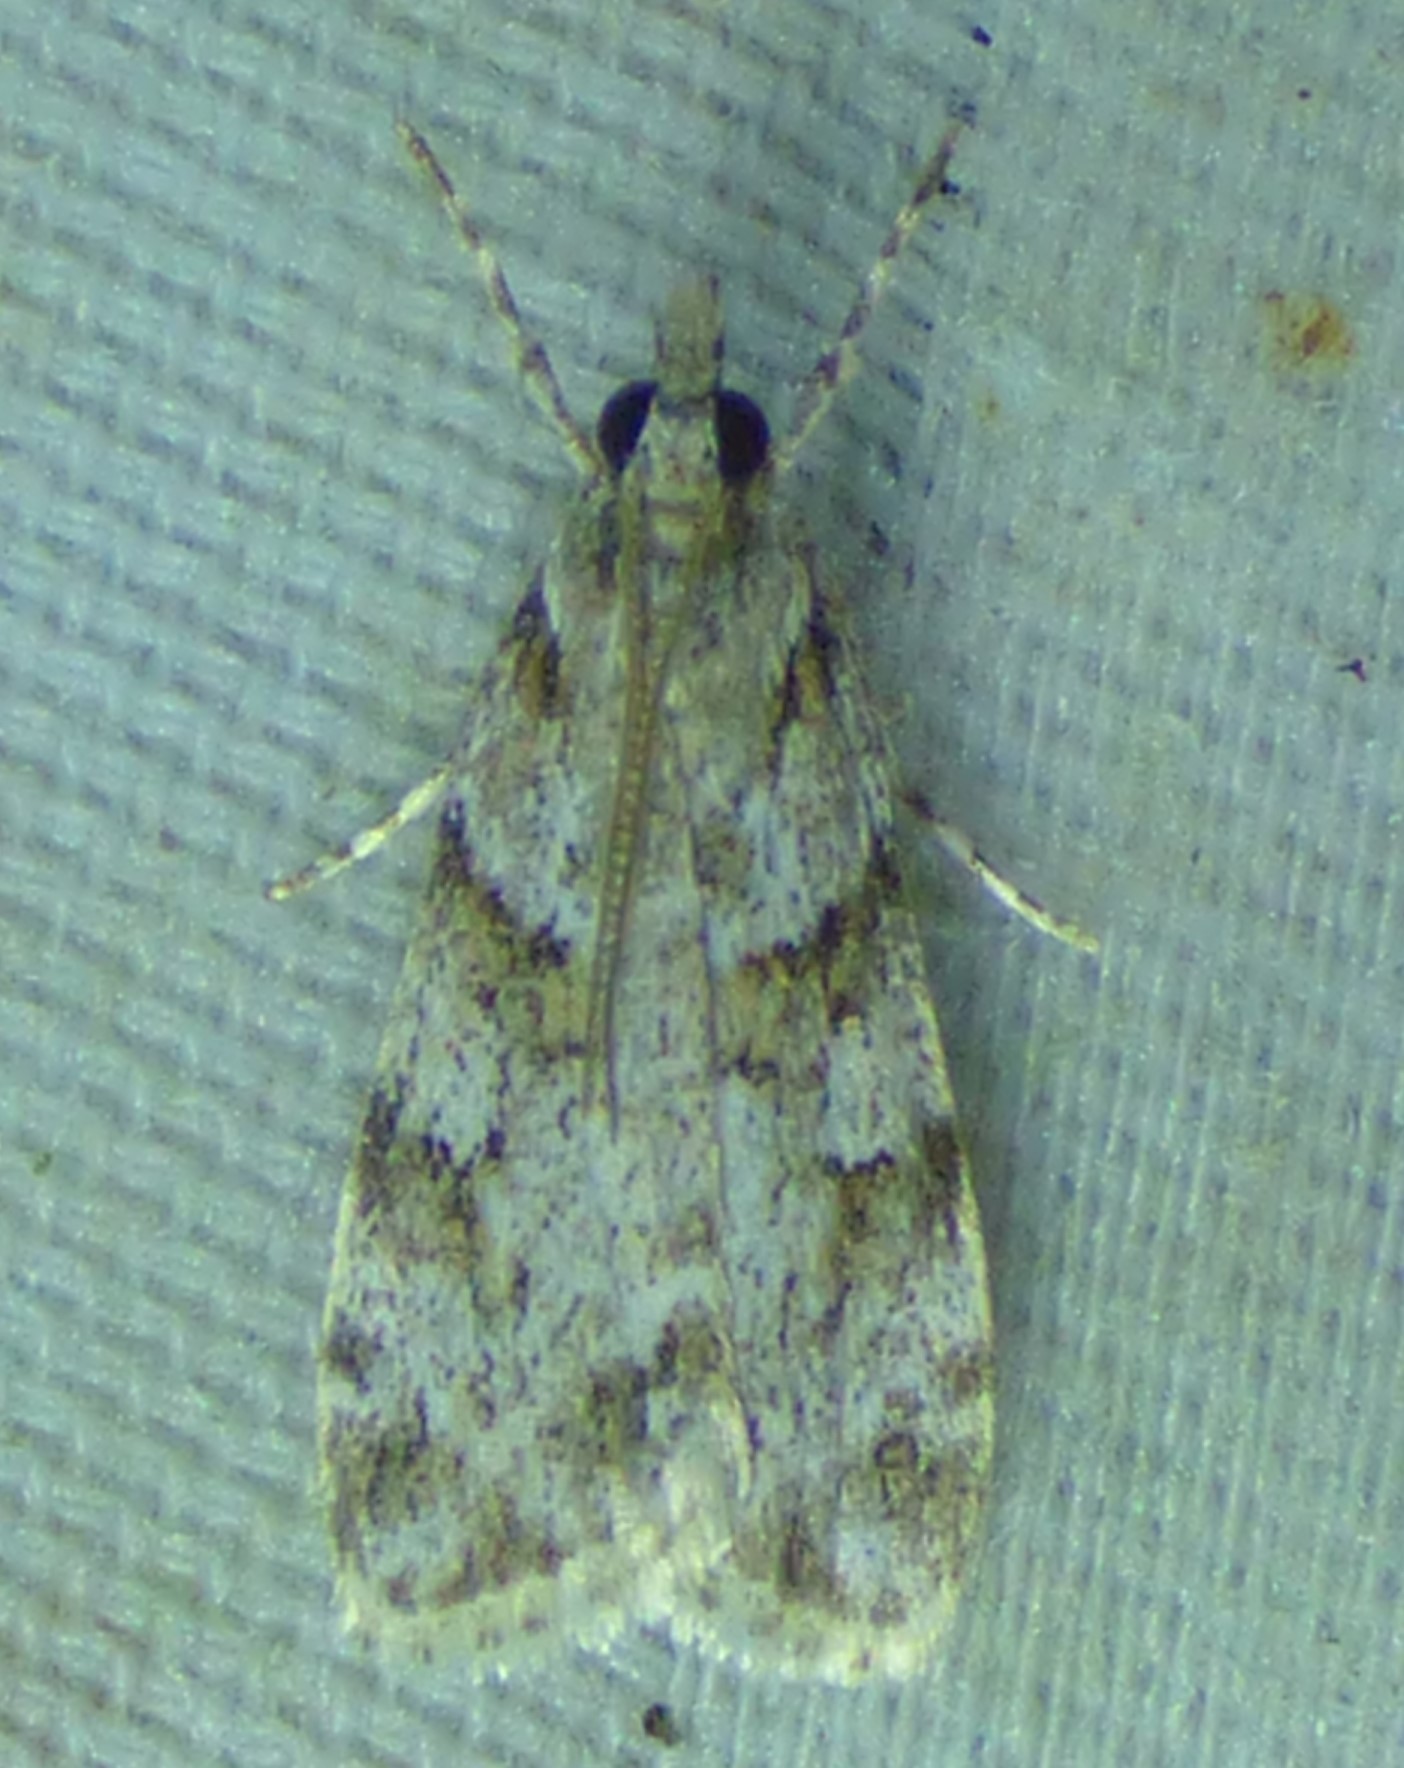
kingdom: Animalia
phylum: Arthropoda
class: Insecta
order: Lepidoptera
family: Crambidae
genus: Scoparia
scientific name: Scoparia biplagialis
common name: Double-striped scoparia moth
